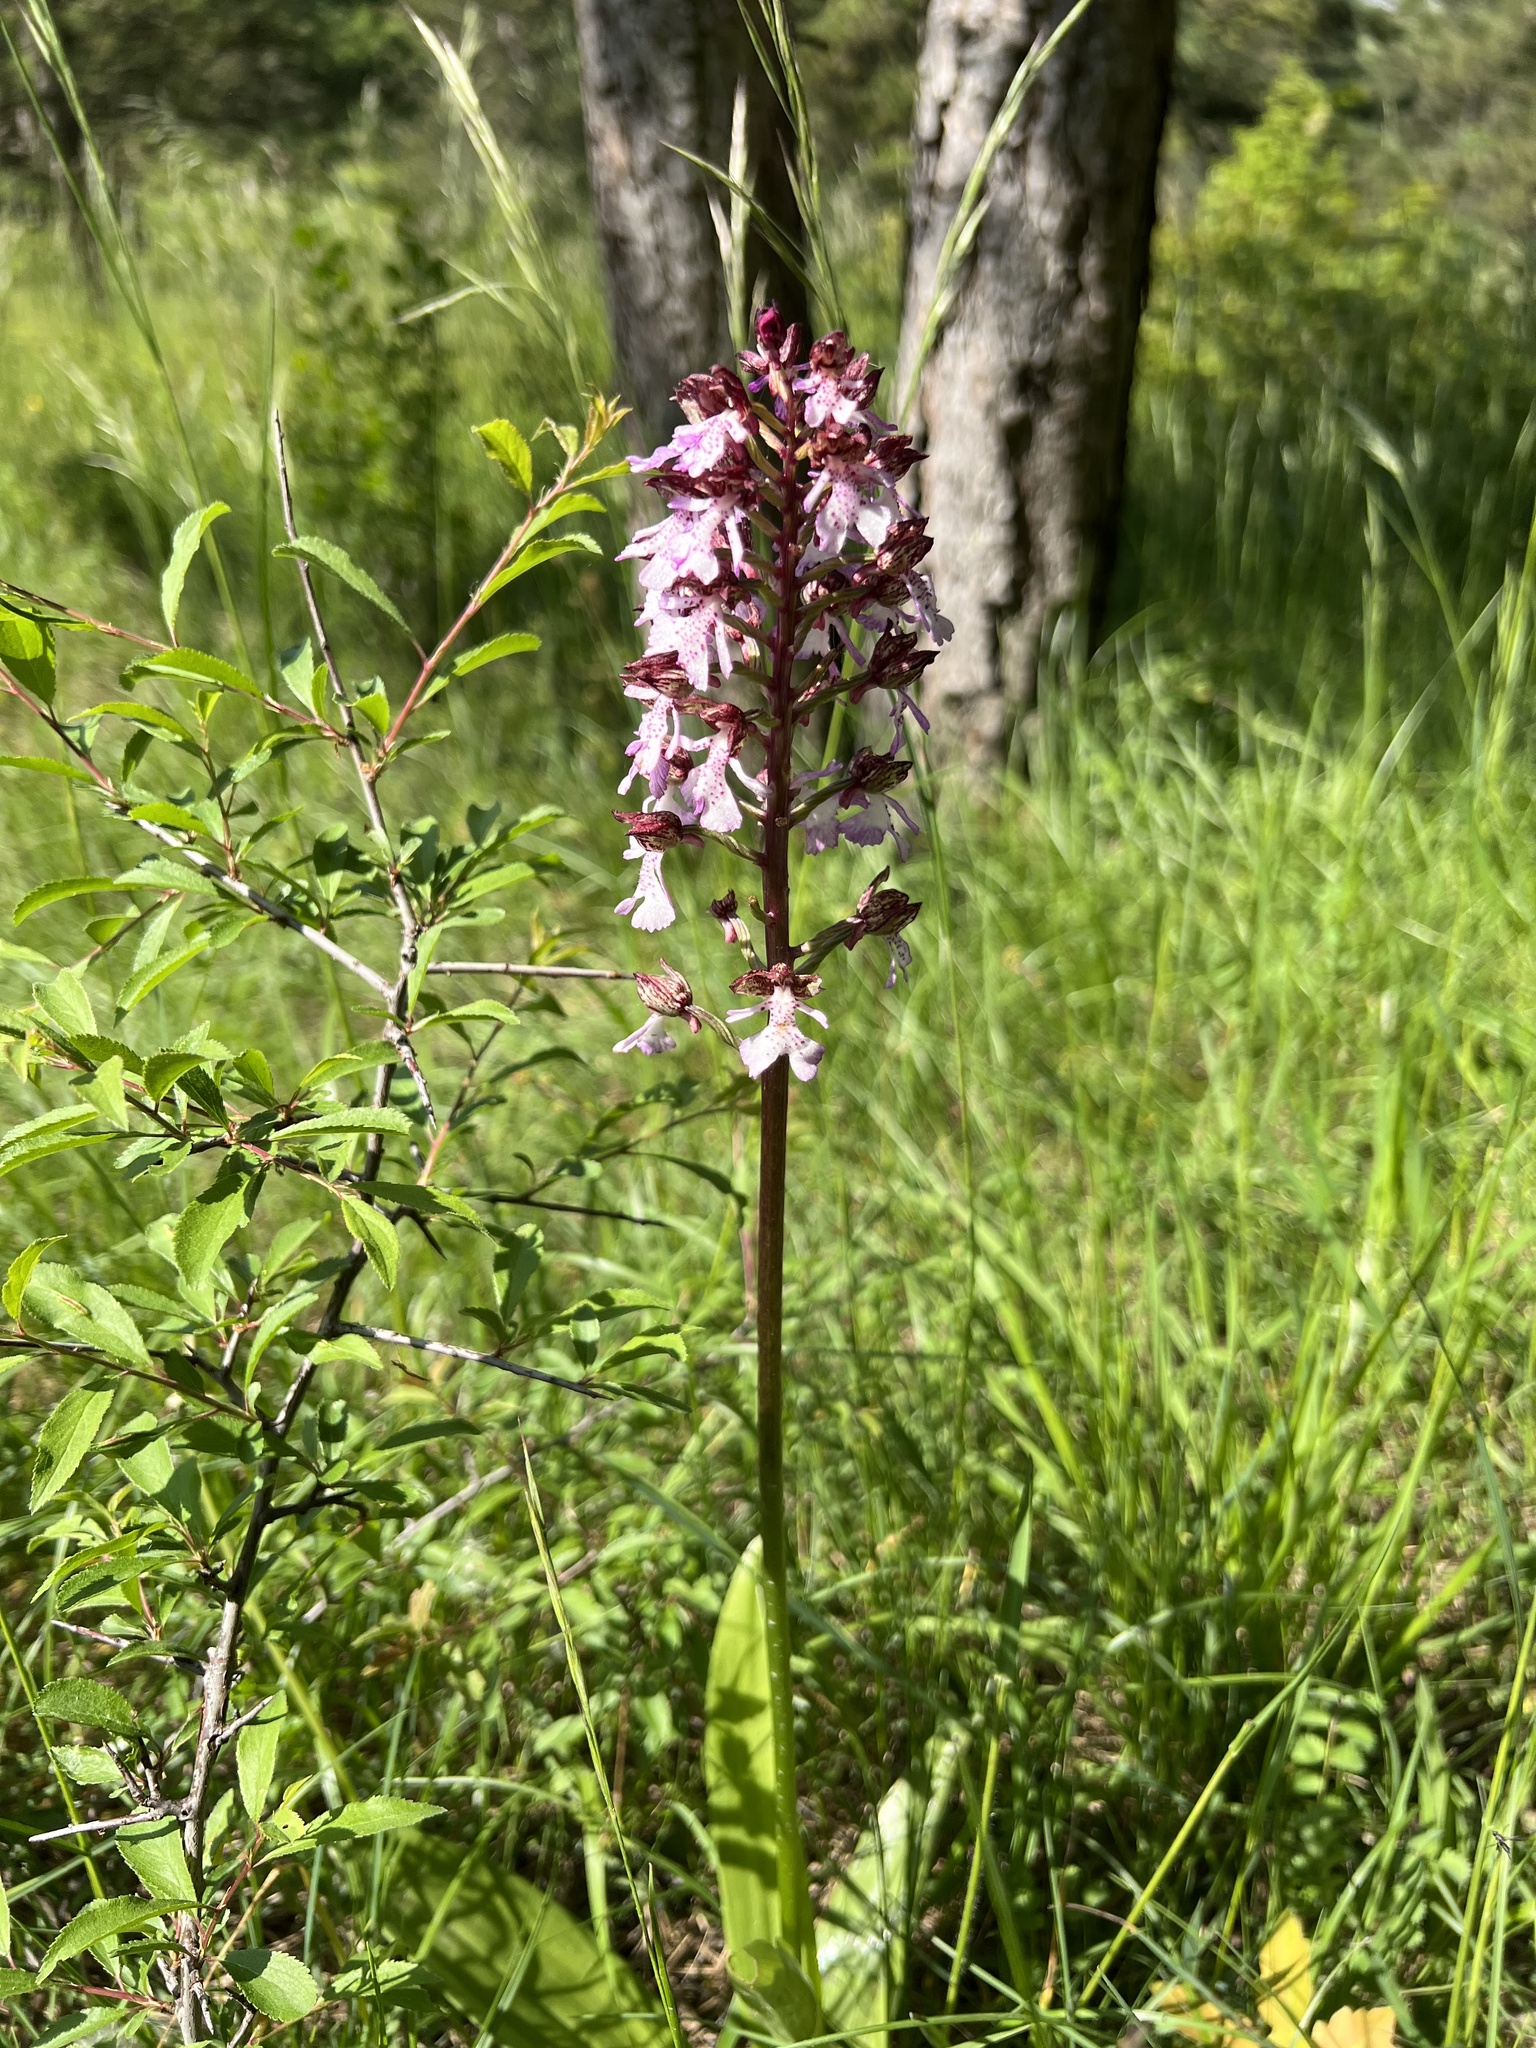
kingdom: Plantae
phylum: Tracheophyta
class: Liliopsida
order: Asparagales
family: Orchidaceae
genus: Orchis
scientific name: Orchis purpurea
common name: Lady orchid
